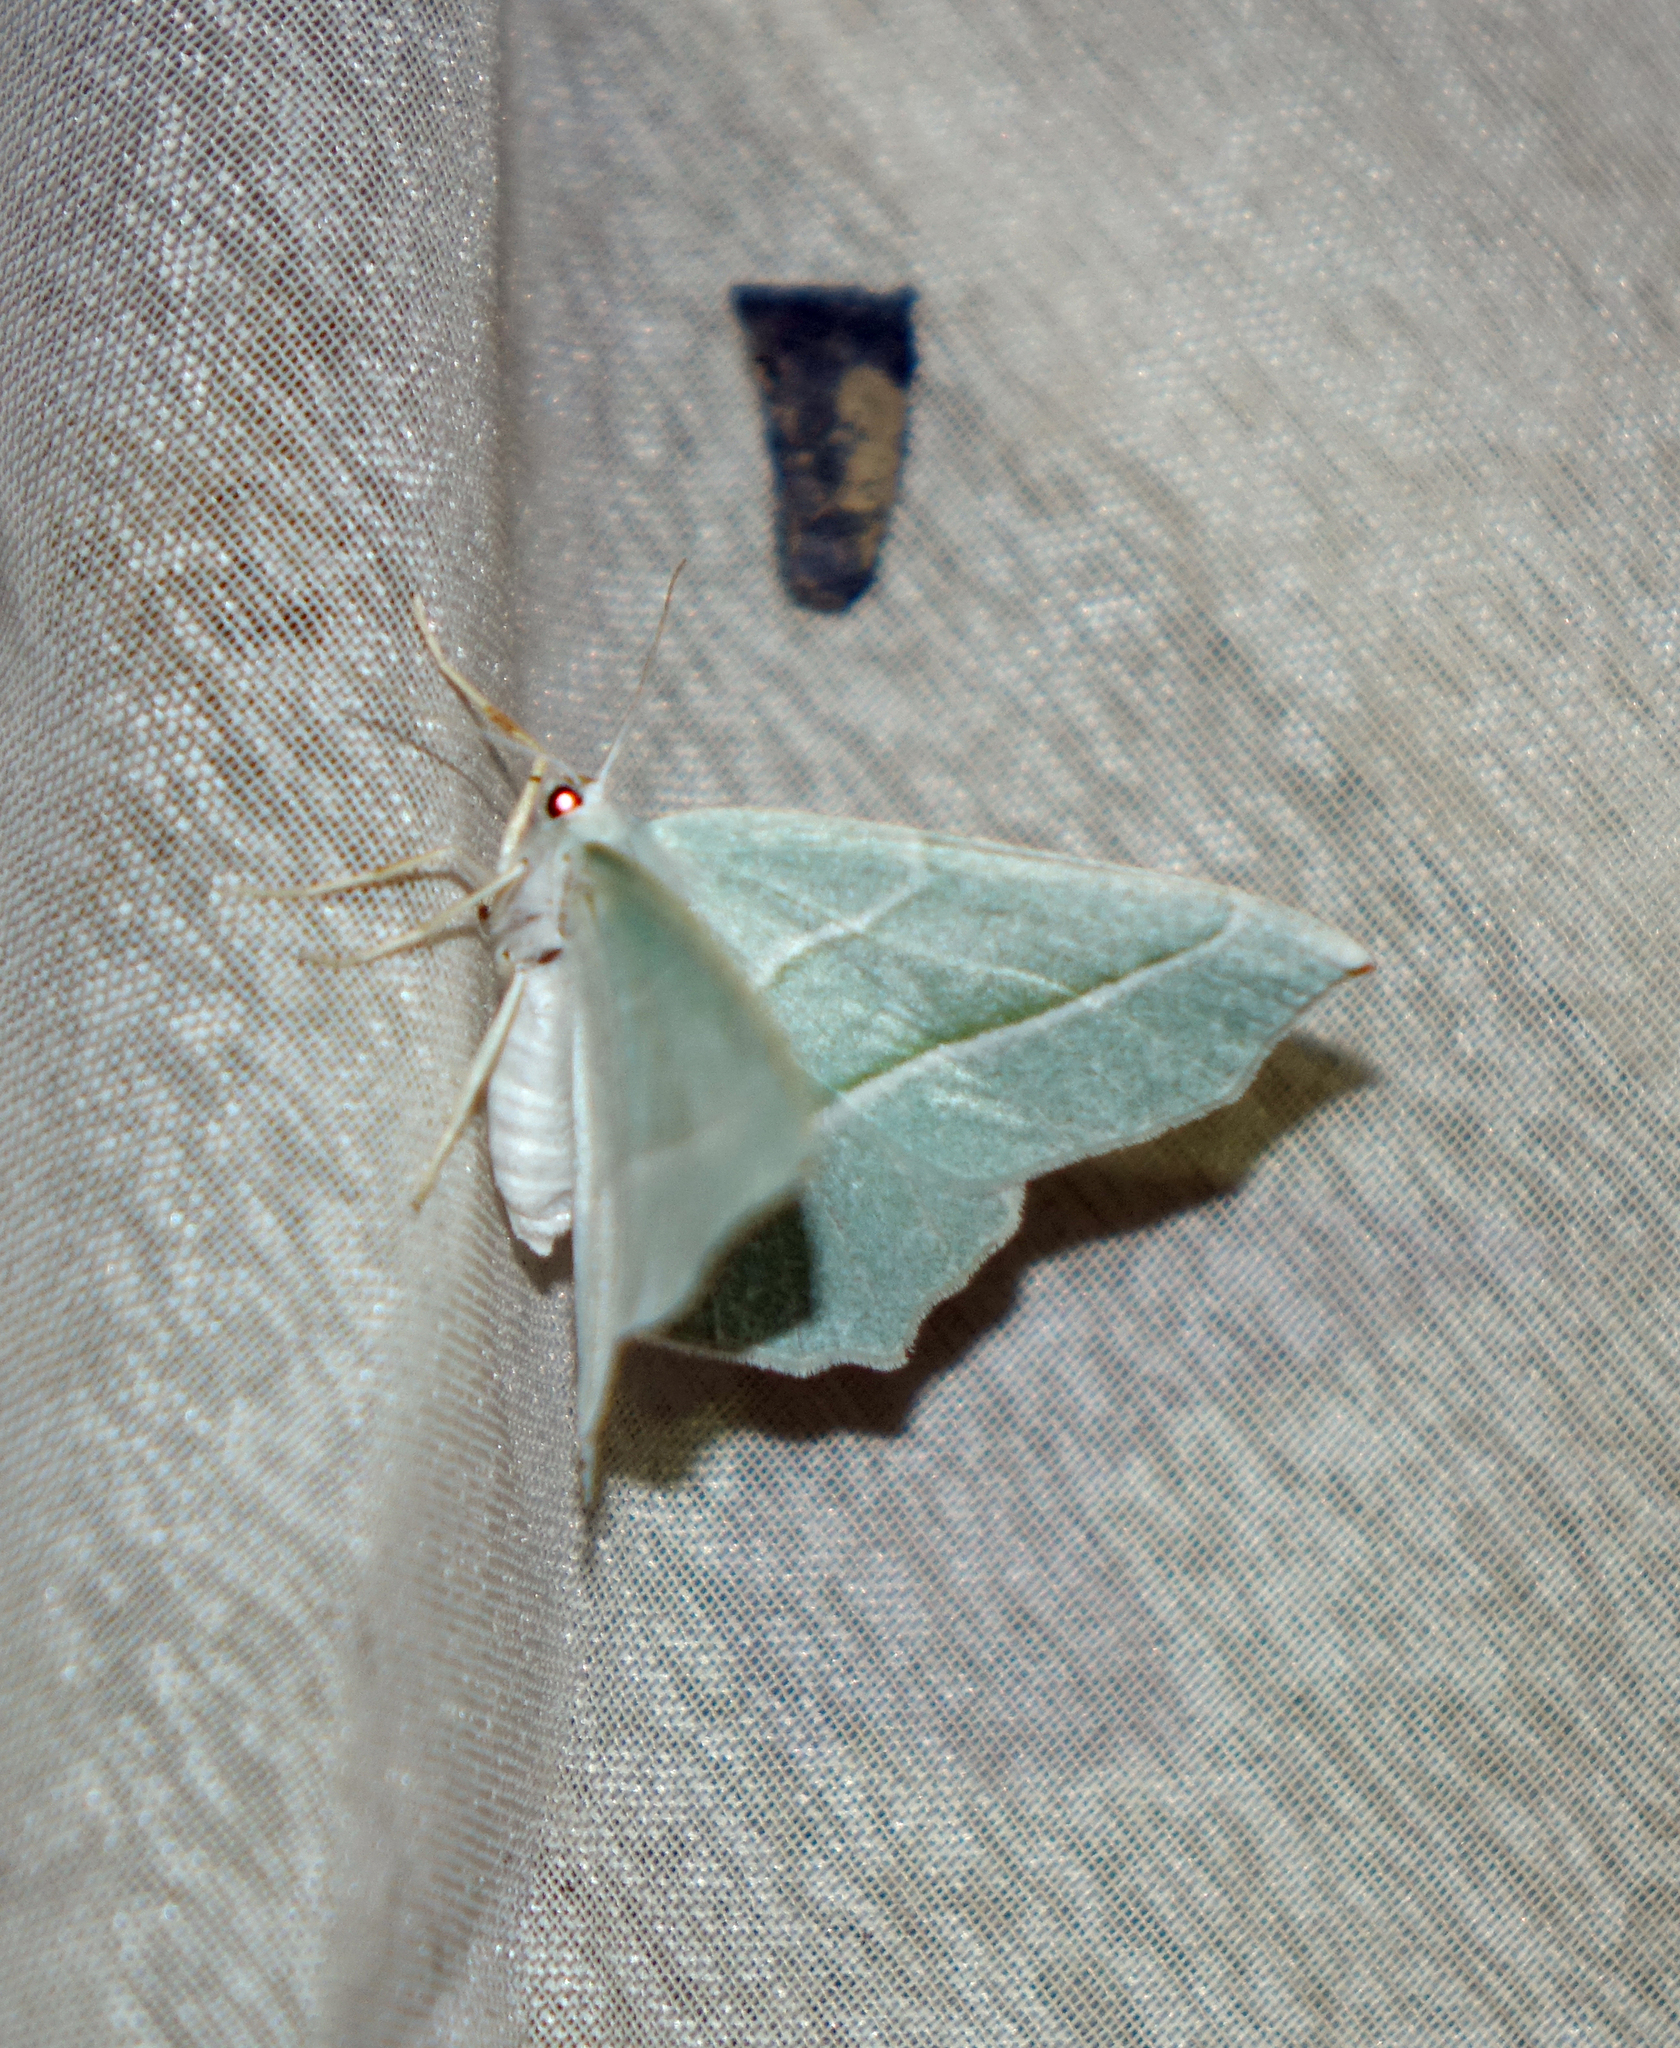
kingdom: Animalia
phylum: Arthropoda
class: Insecta
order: Lepidoptera
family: Geometridae
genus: Campaea
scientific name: Campaea margaritaria
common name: Light emerald
